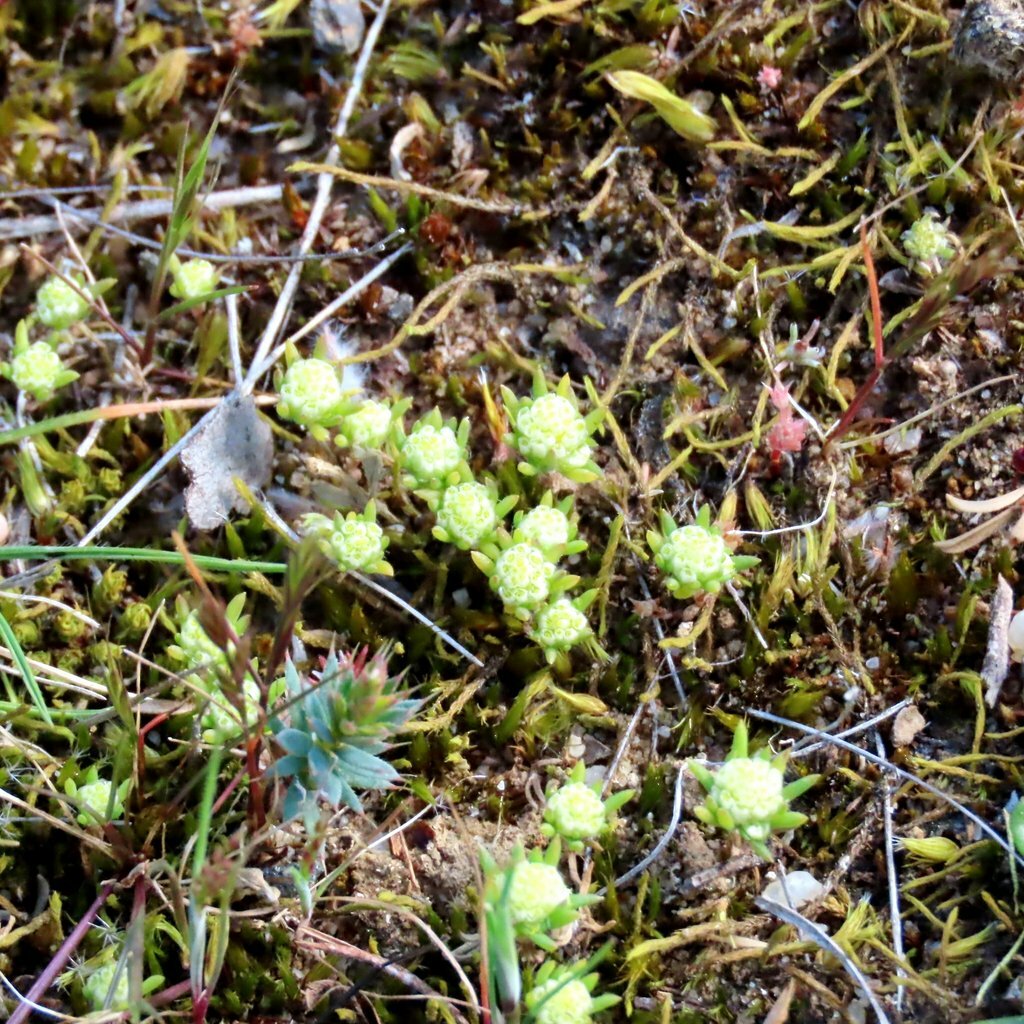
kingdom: Plantae
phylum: Tracheophyta
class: Magnoliopsida
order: Asterales
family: Asteraceae
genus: Siloxerus
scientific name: Siloxerus multiflorus
